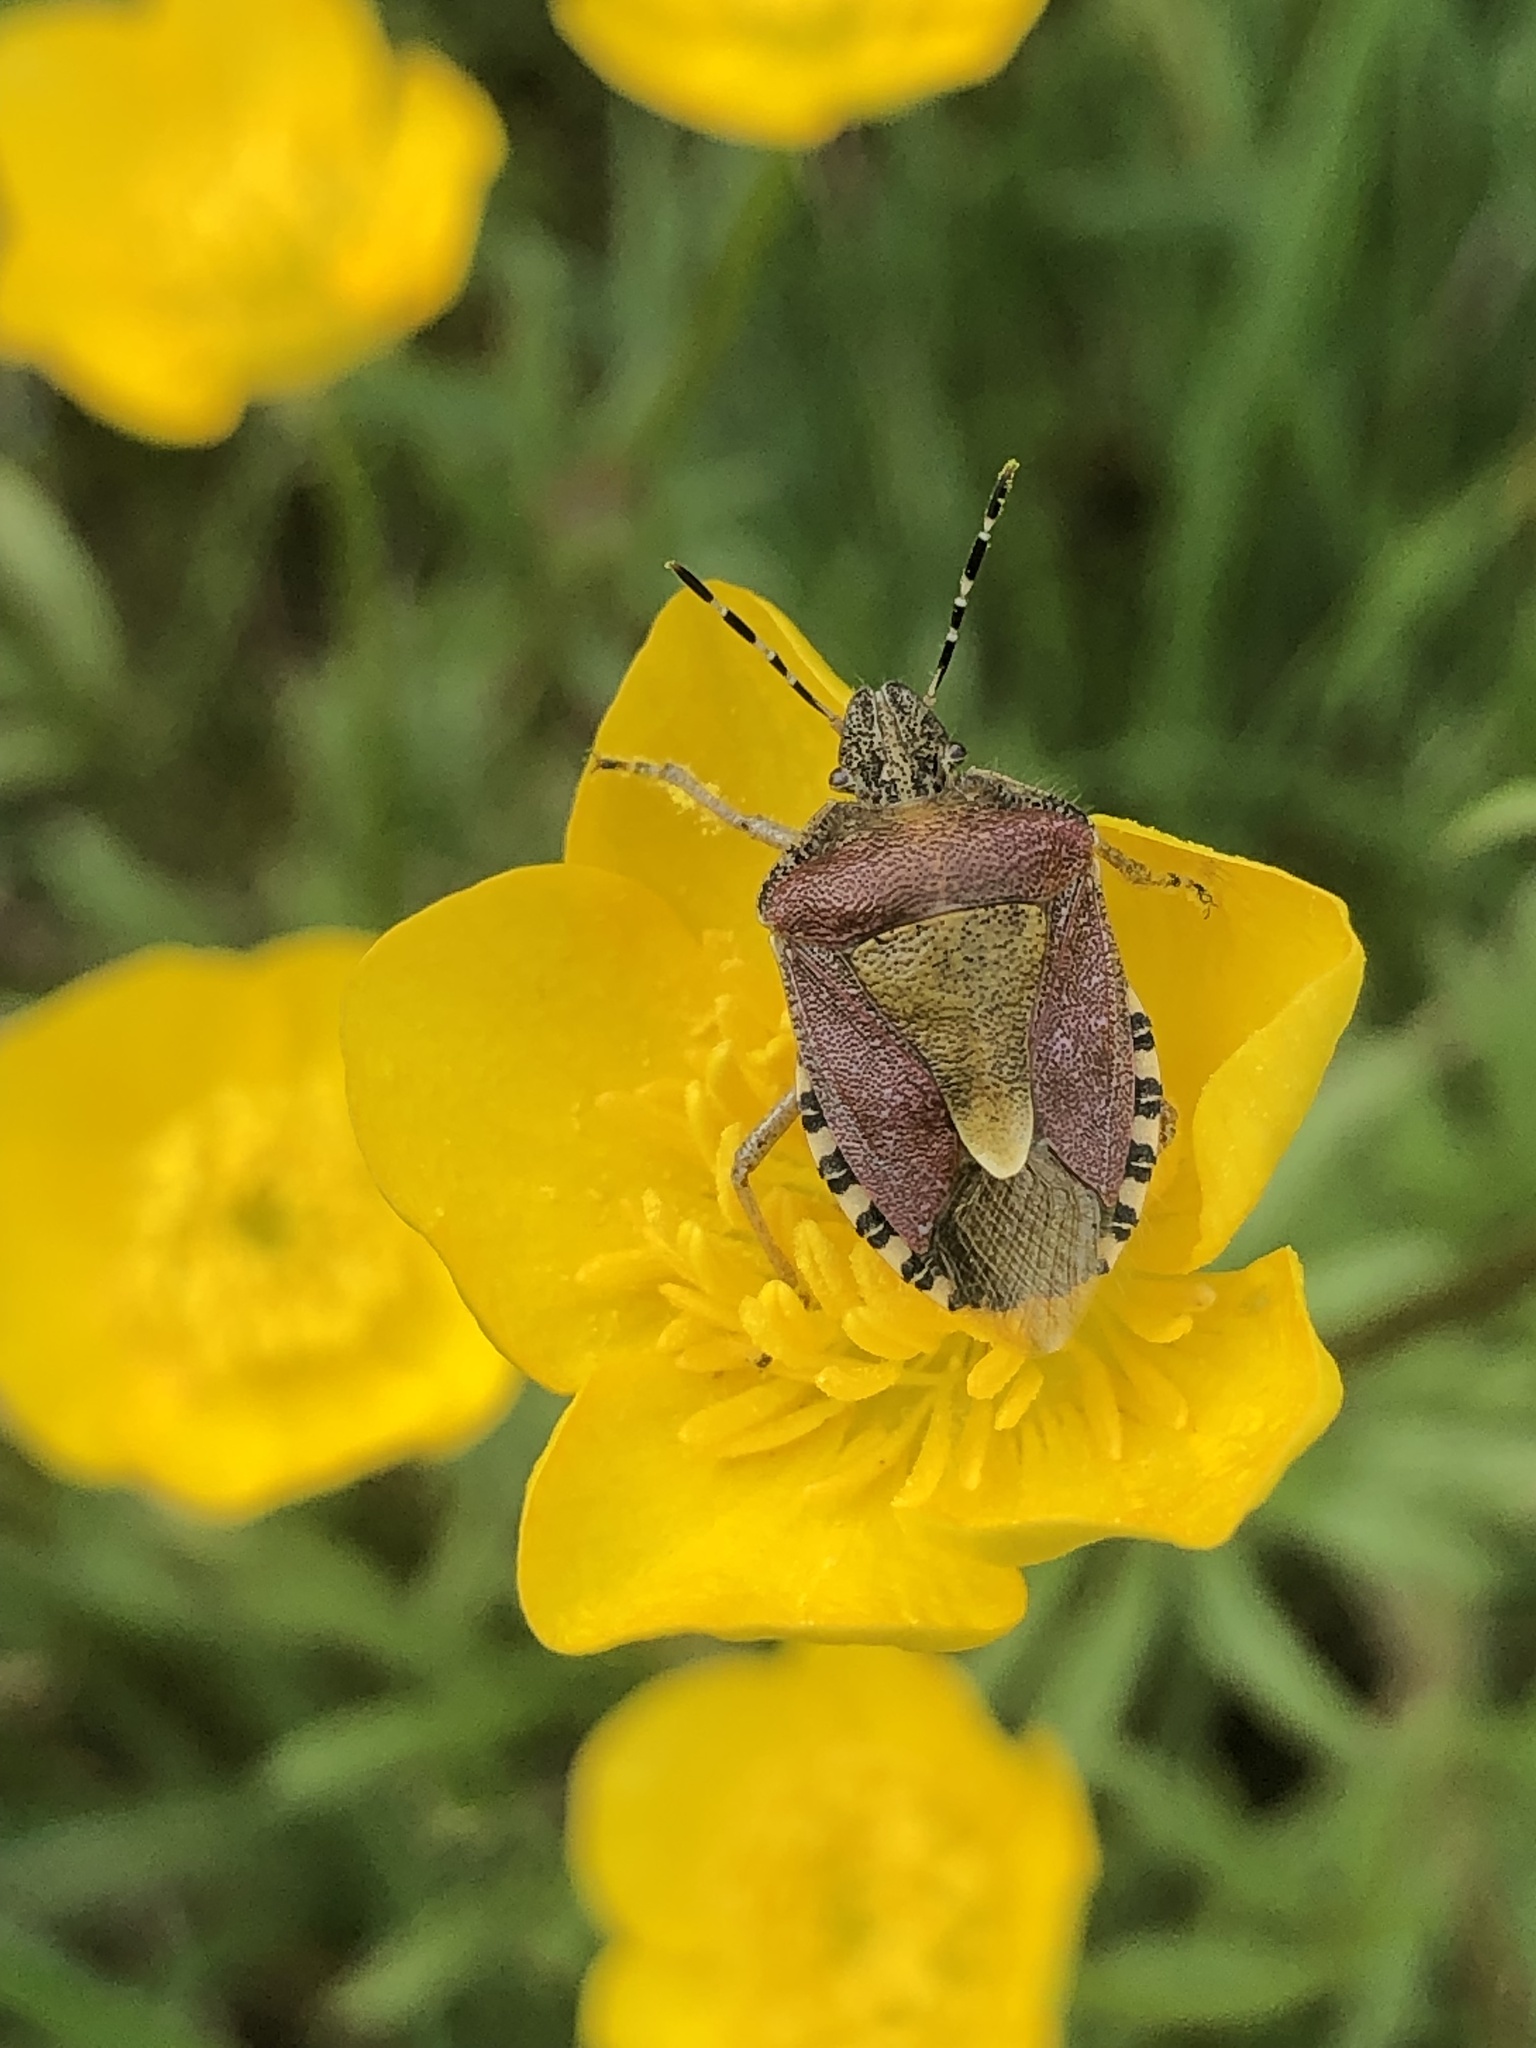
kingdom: Animalia
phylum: Arthropoda
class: Insecta
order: Hemiptera
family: Pentatomidae
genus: Dolycoris
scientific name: Dolycoris baccarum
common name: Sloe bug
